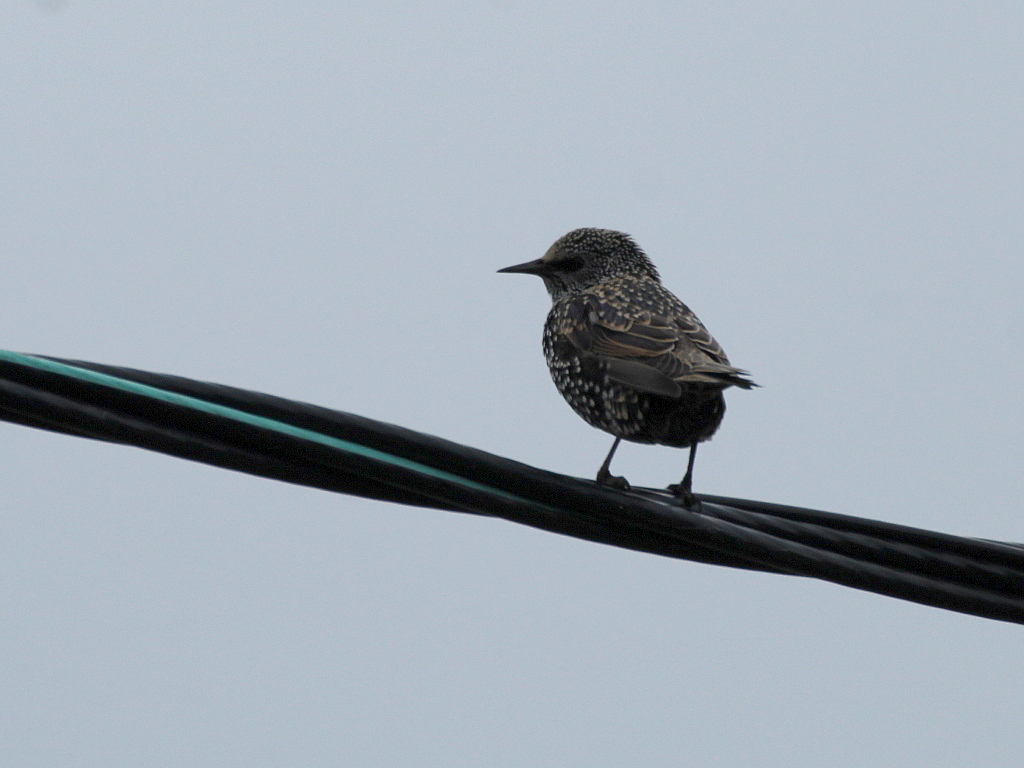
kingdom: Animalia
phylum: Chordata
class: Aves
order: Passeriformes
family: Sturnidae
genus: Sturnus
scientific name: Sturnus vulgaris
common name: Common starling
